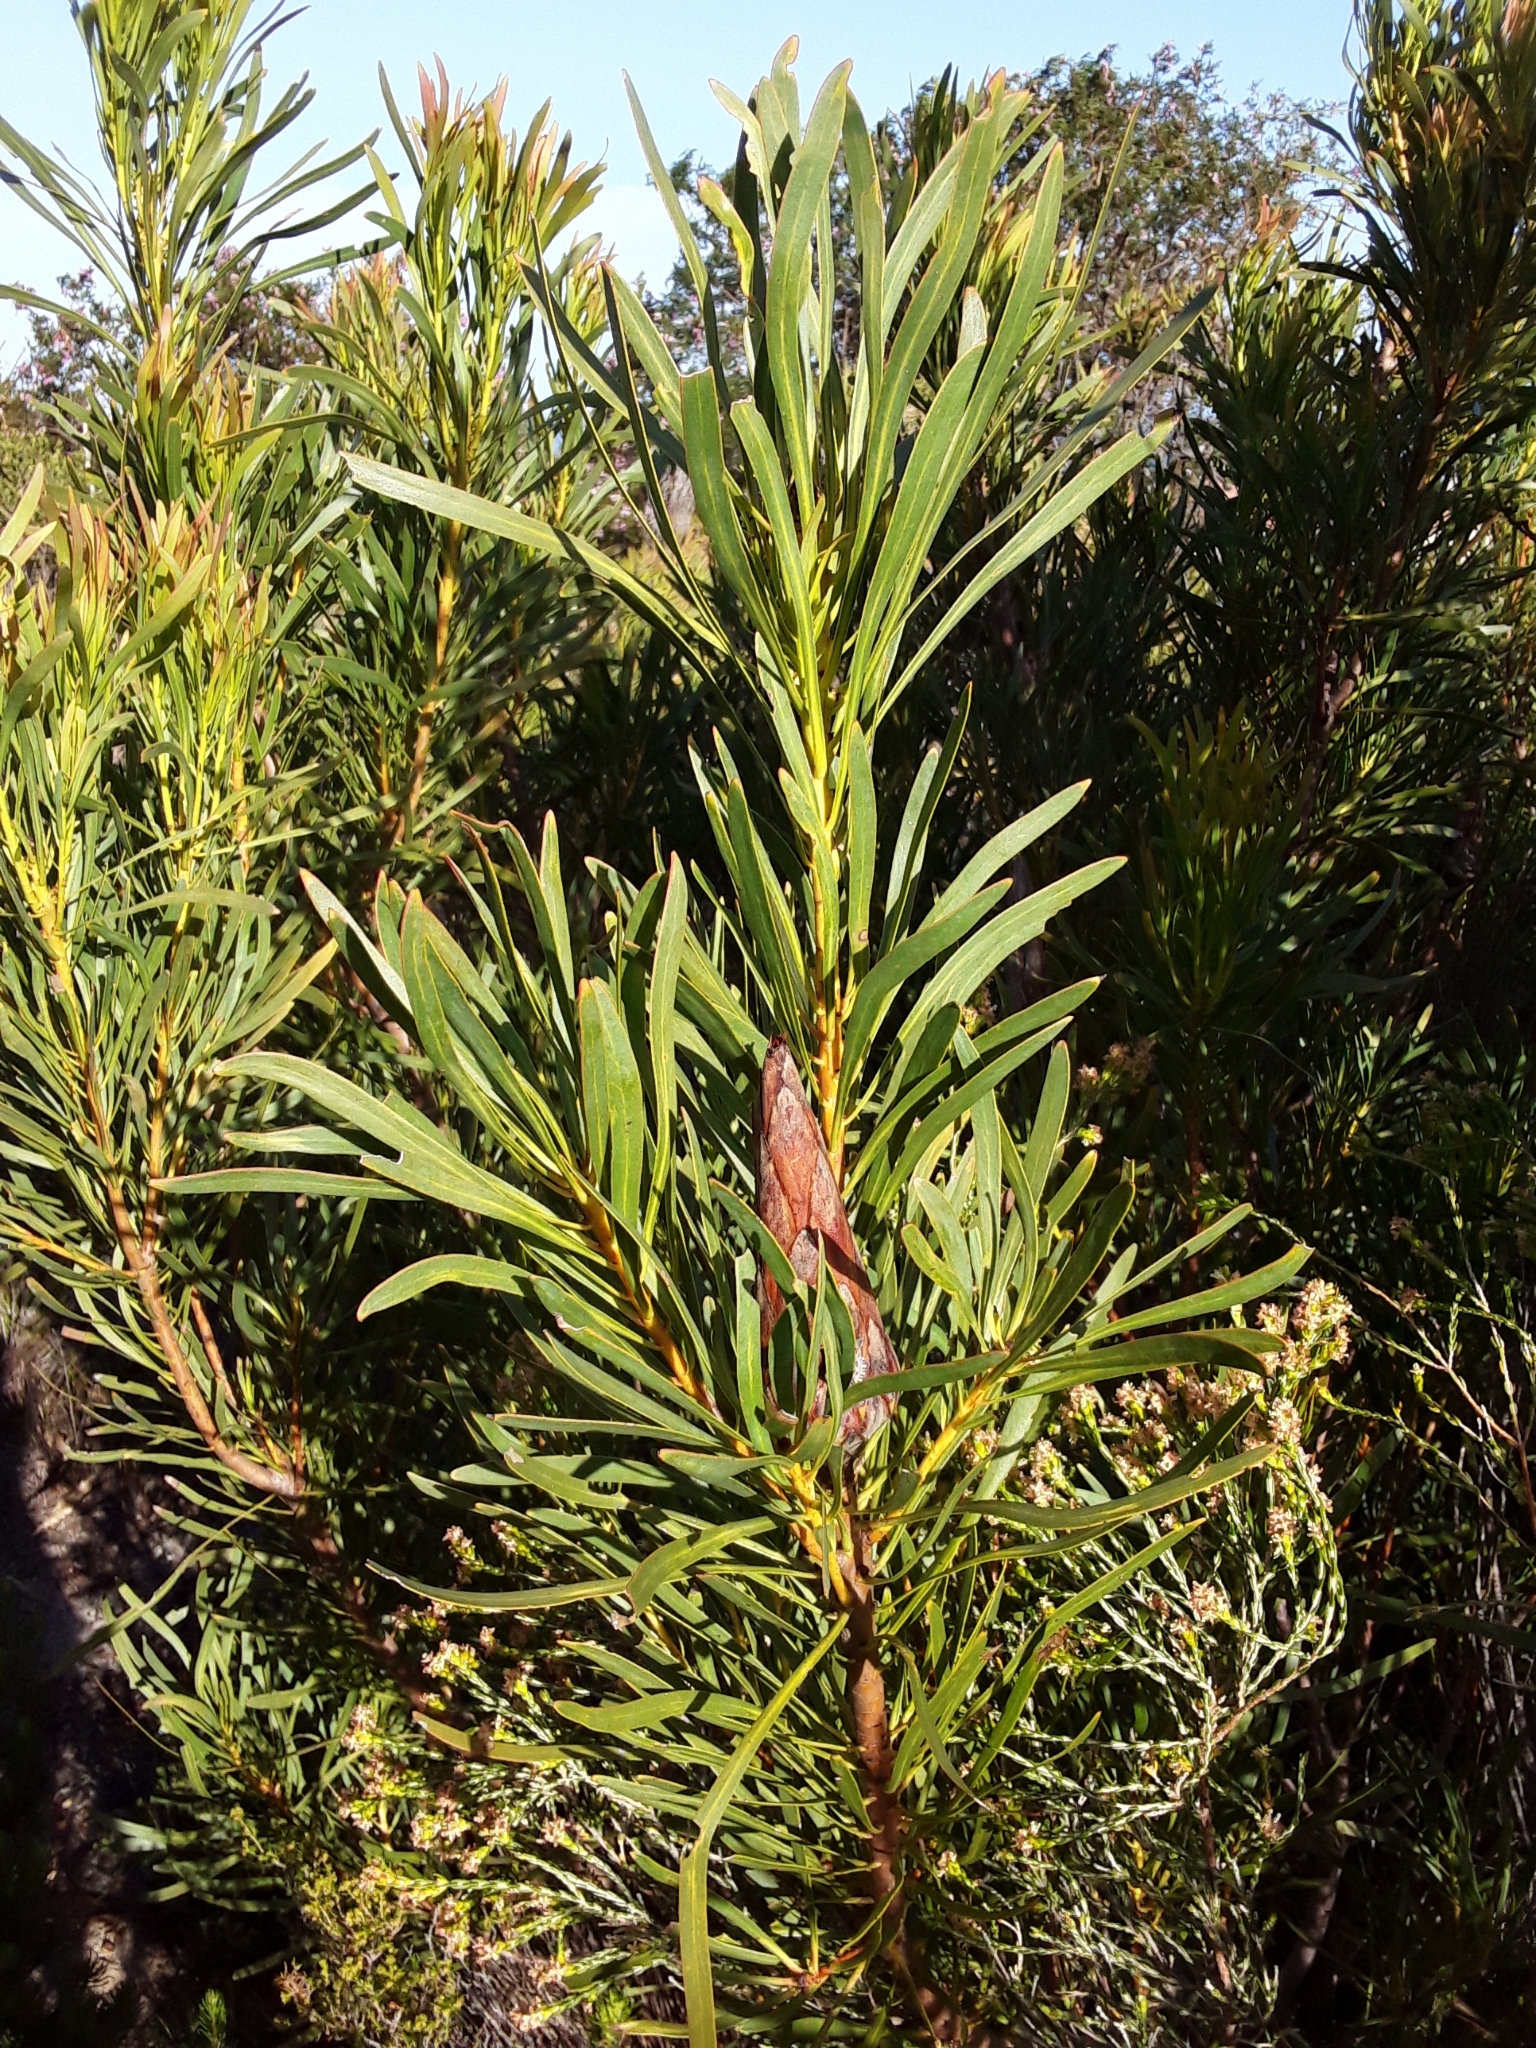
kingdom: Plantae
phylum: Tracheophyta
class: Magnoliopsida
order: Proteales
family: Proteaceae
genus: Protea
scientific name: Protea repens
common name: Sugarbush
